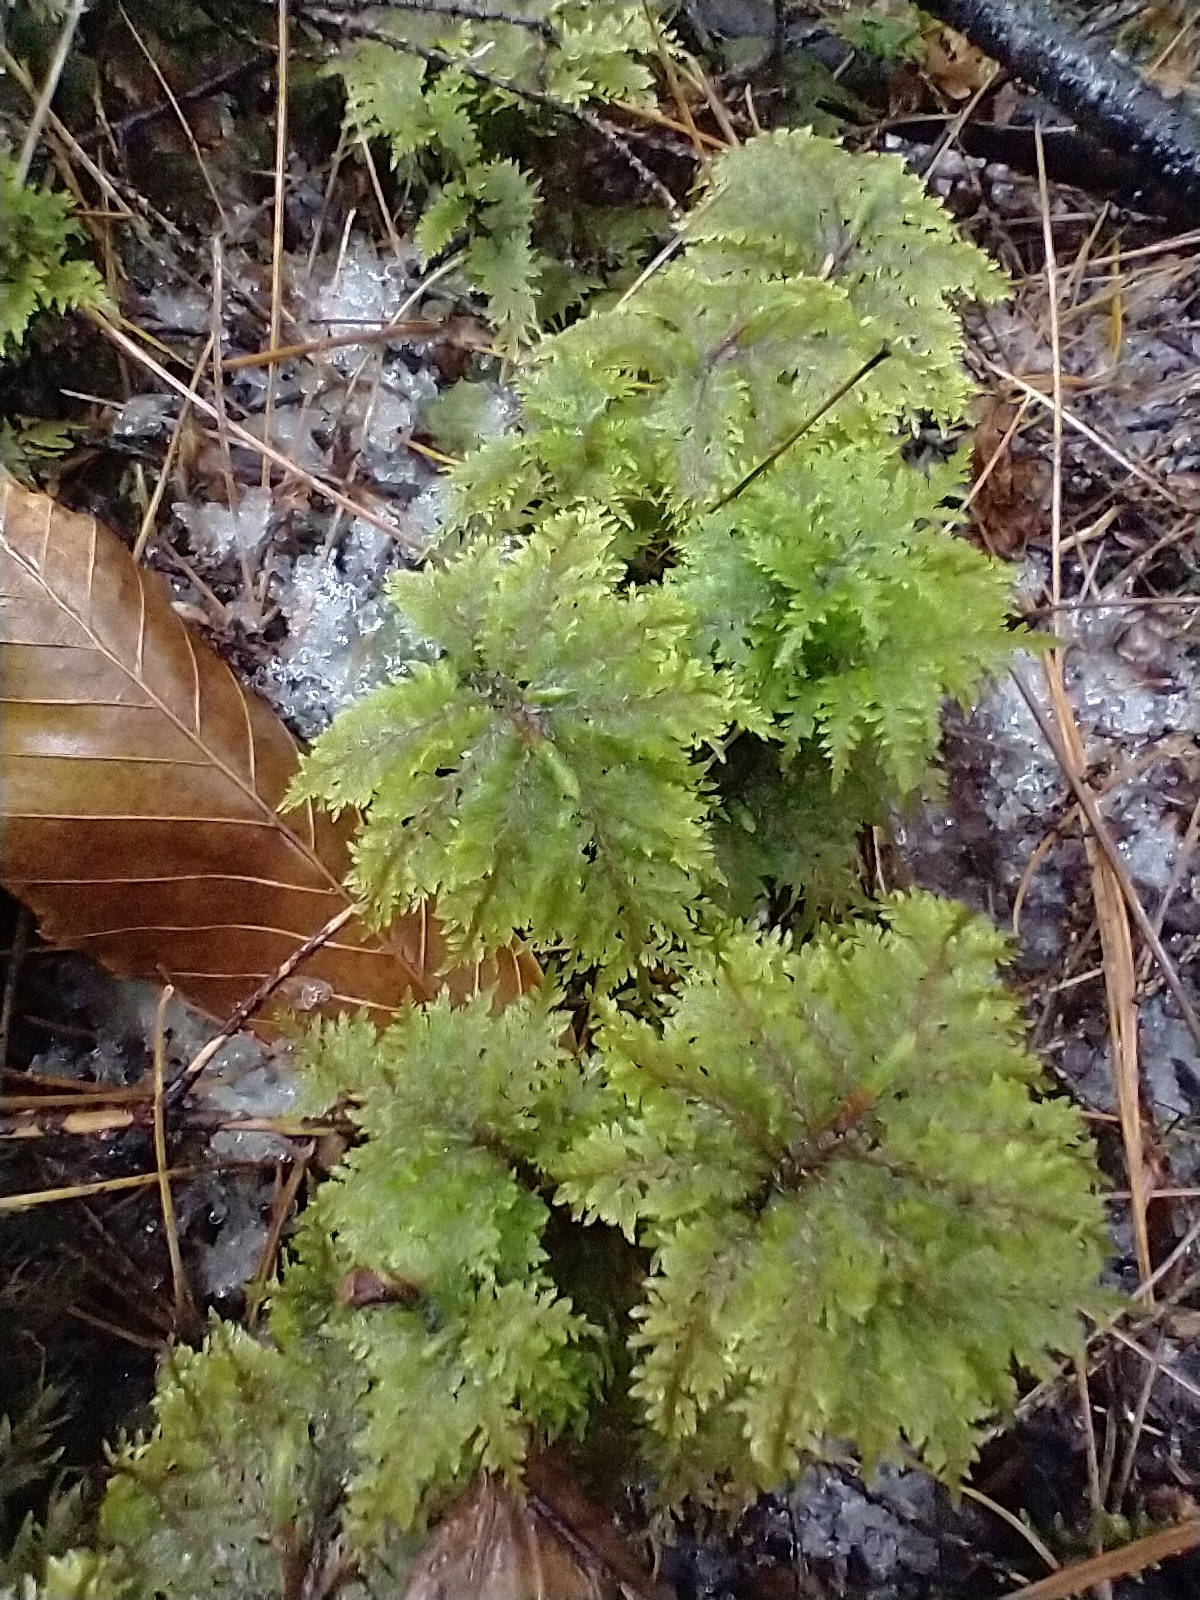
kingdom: Plantae
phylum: Bryophyta
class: Bryopsida
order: Hypnales
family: Hylocomiaceae
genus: Hylocomium
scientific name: Hylocomium splendens
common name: Stairstep moss
